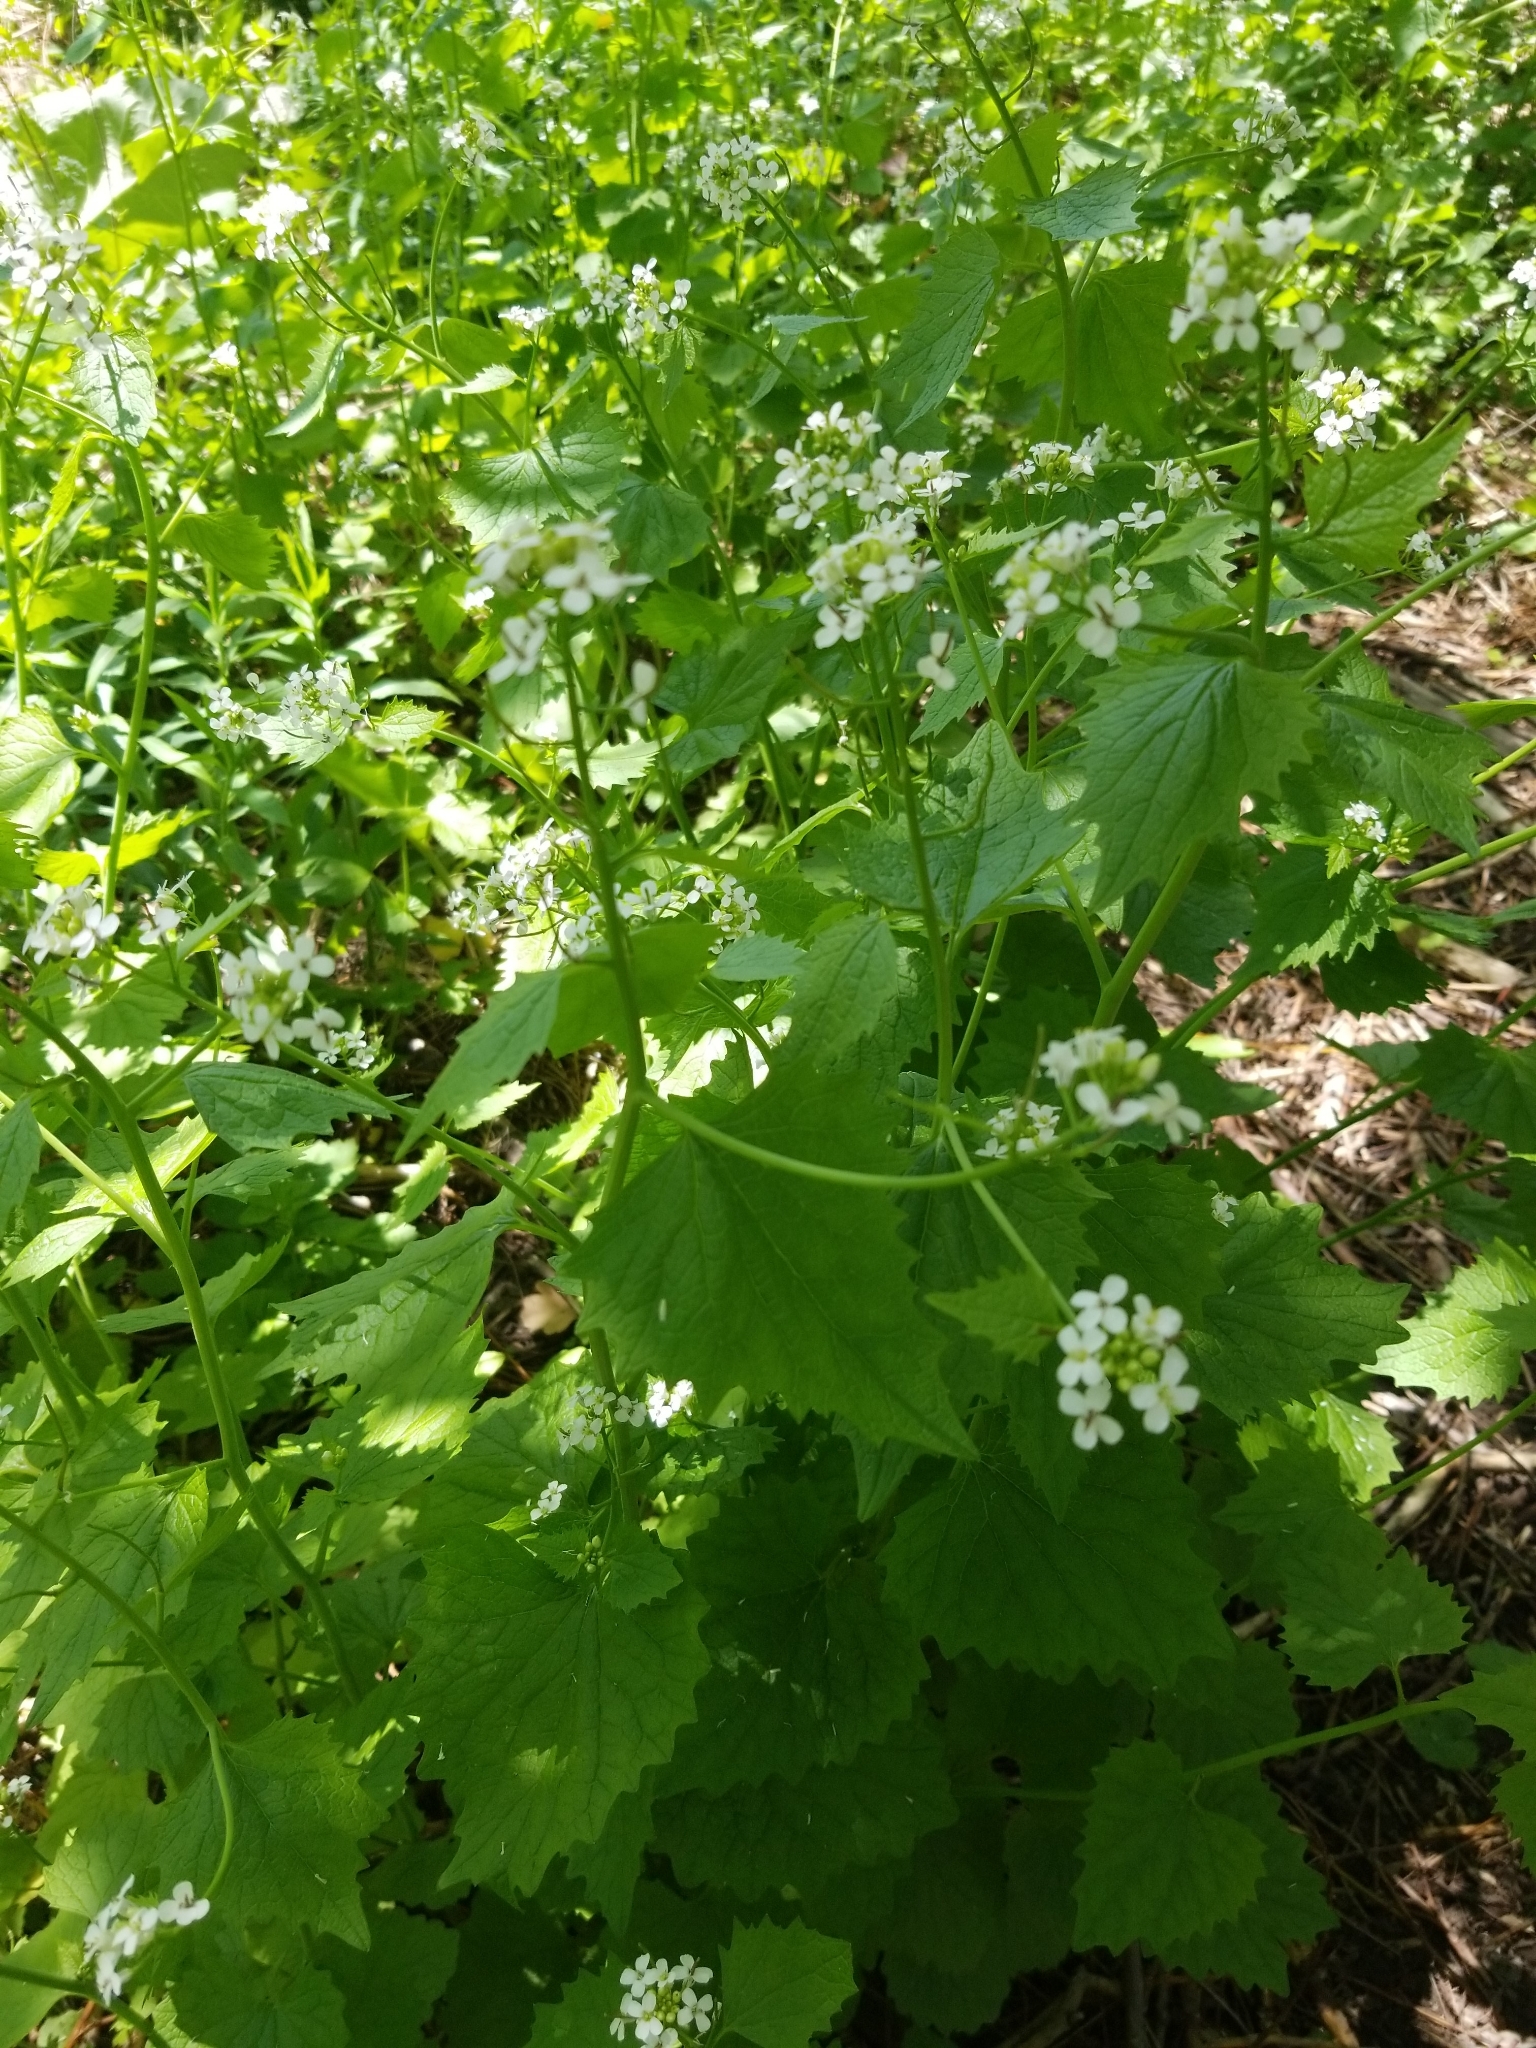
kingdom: Plantae
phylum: Tracheophyta
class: Magnoliopsida
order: Brassicales
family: Brassicaceae
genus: Alliaria
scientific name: Alliaria petiolata
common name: Garlic mustard
